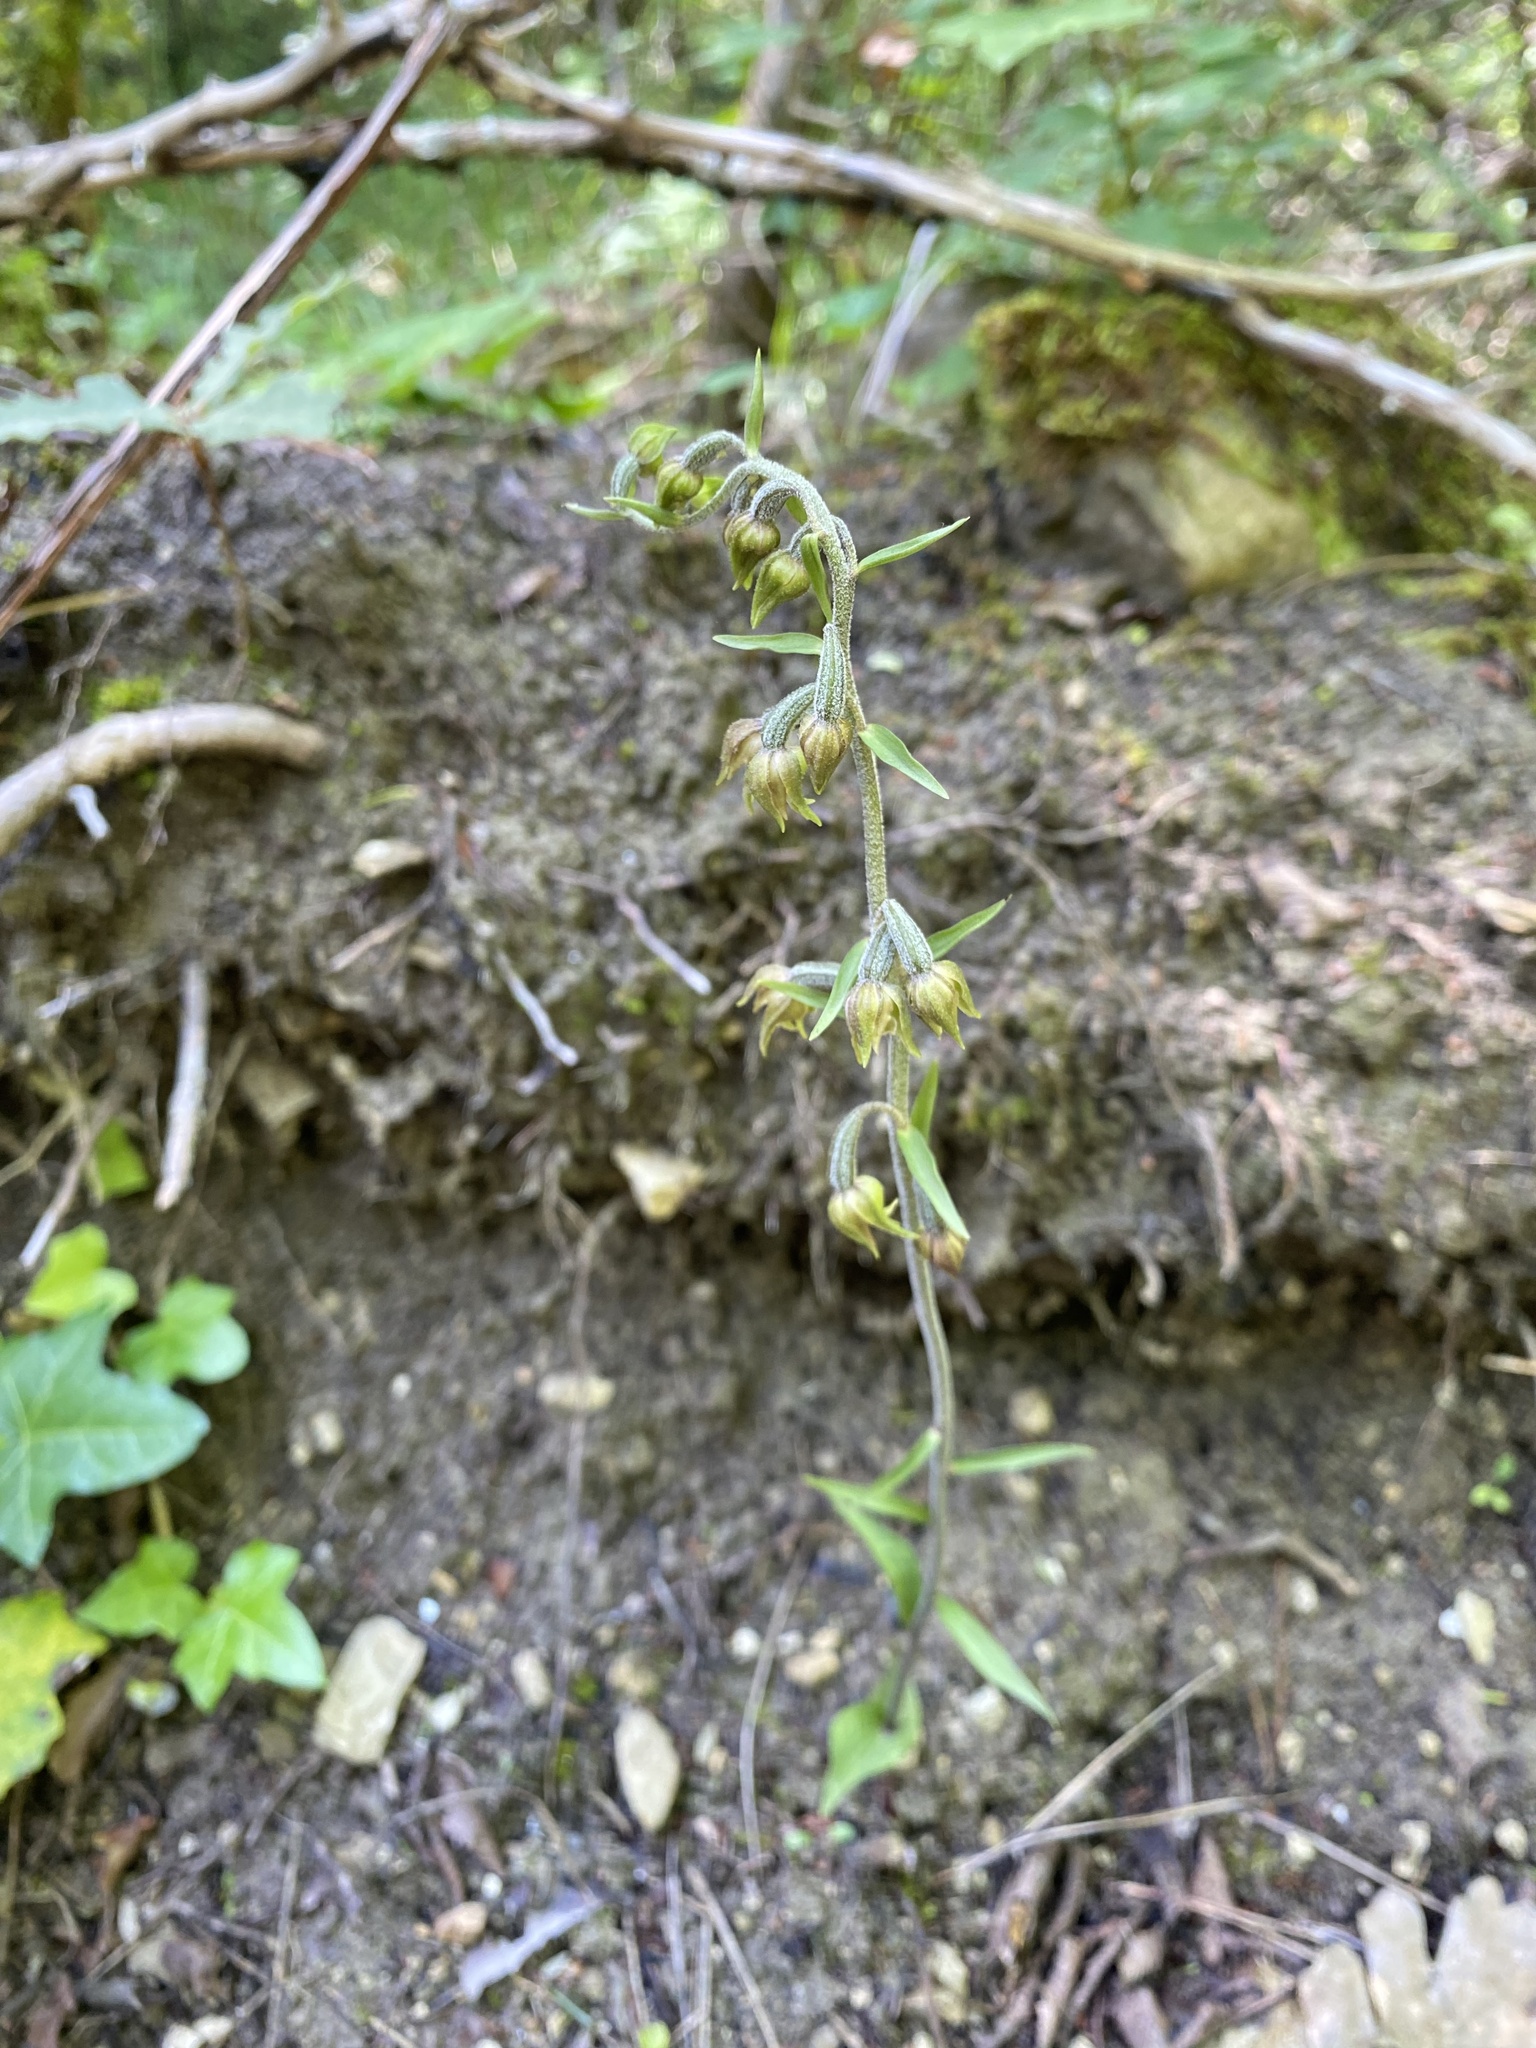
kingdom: Plantae
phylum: Tracheophyta
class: Liliopsida
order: Asparagales
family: Orchidaceae
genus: Epipactis
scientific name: Epipactis microphylla
